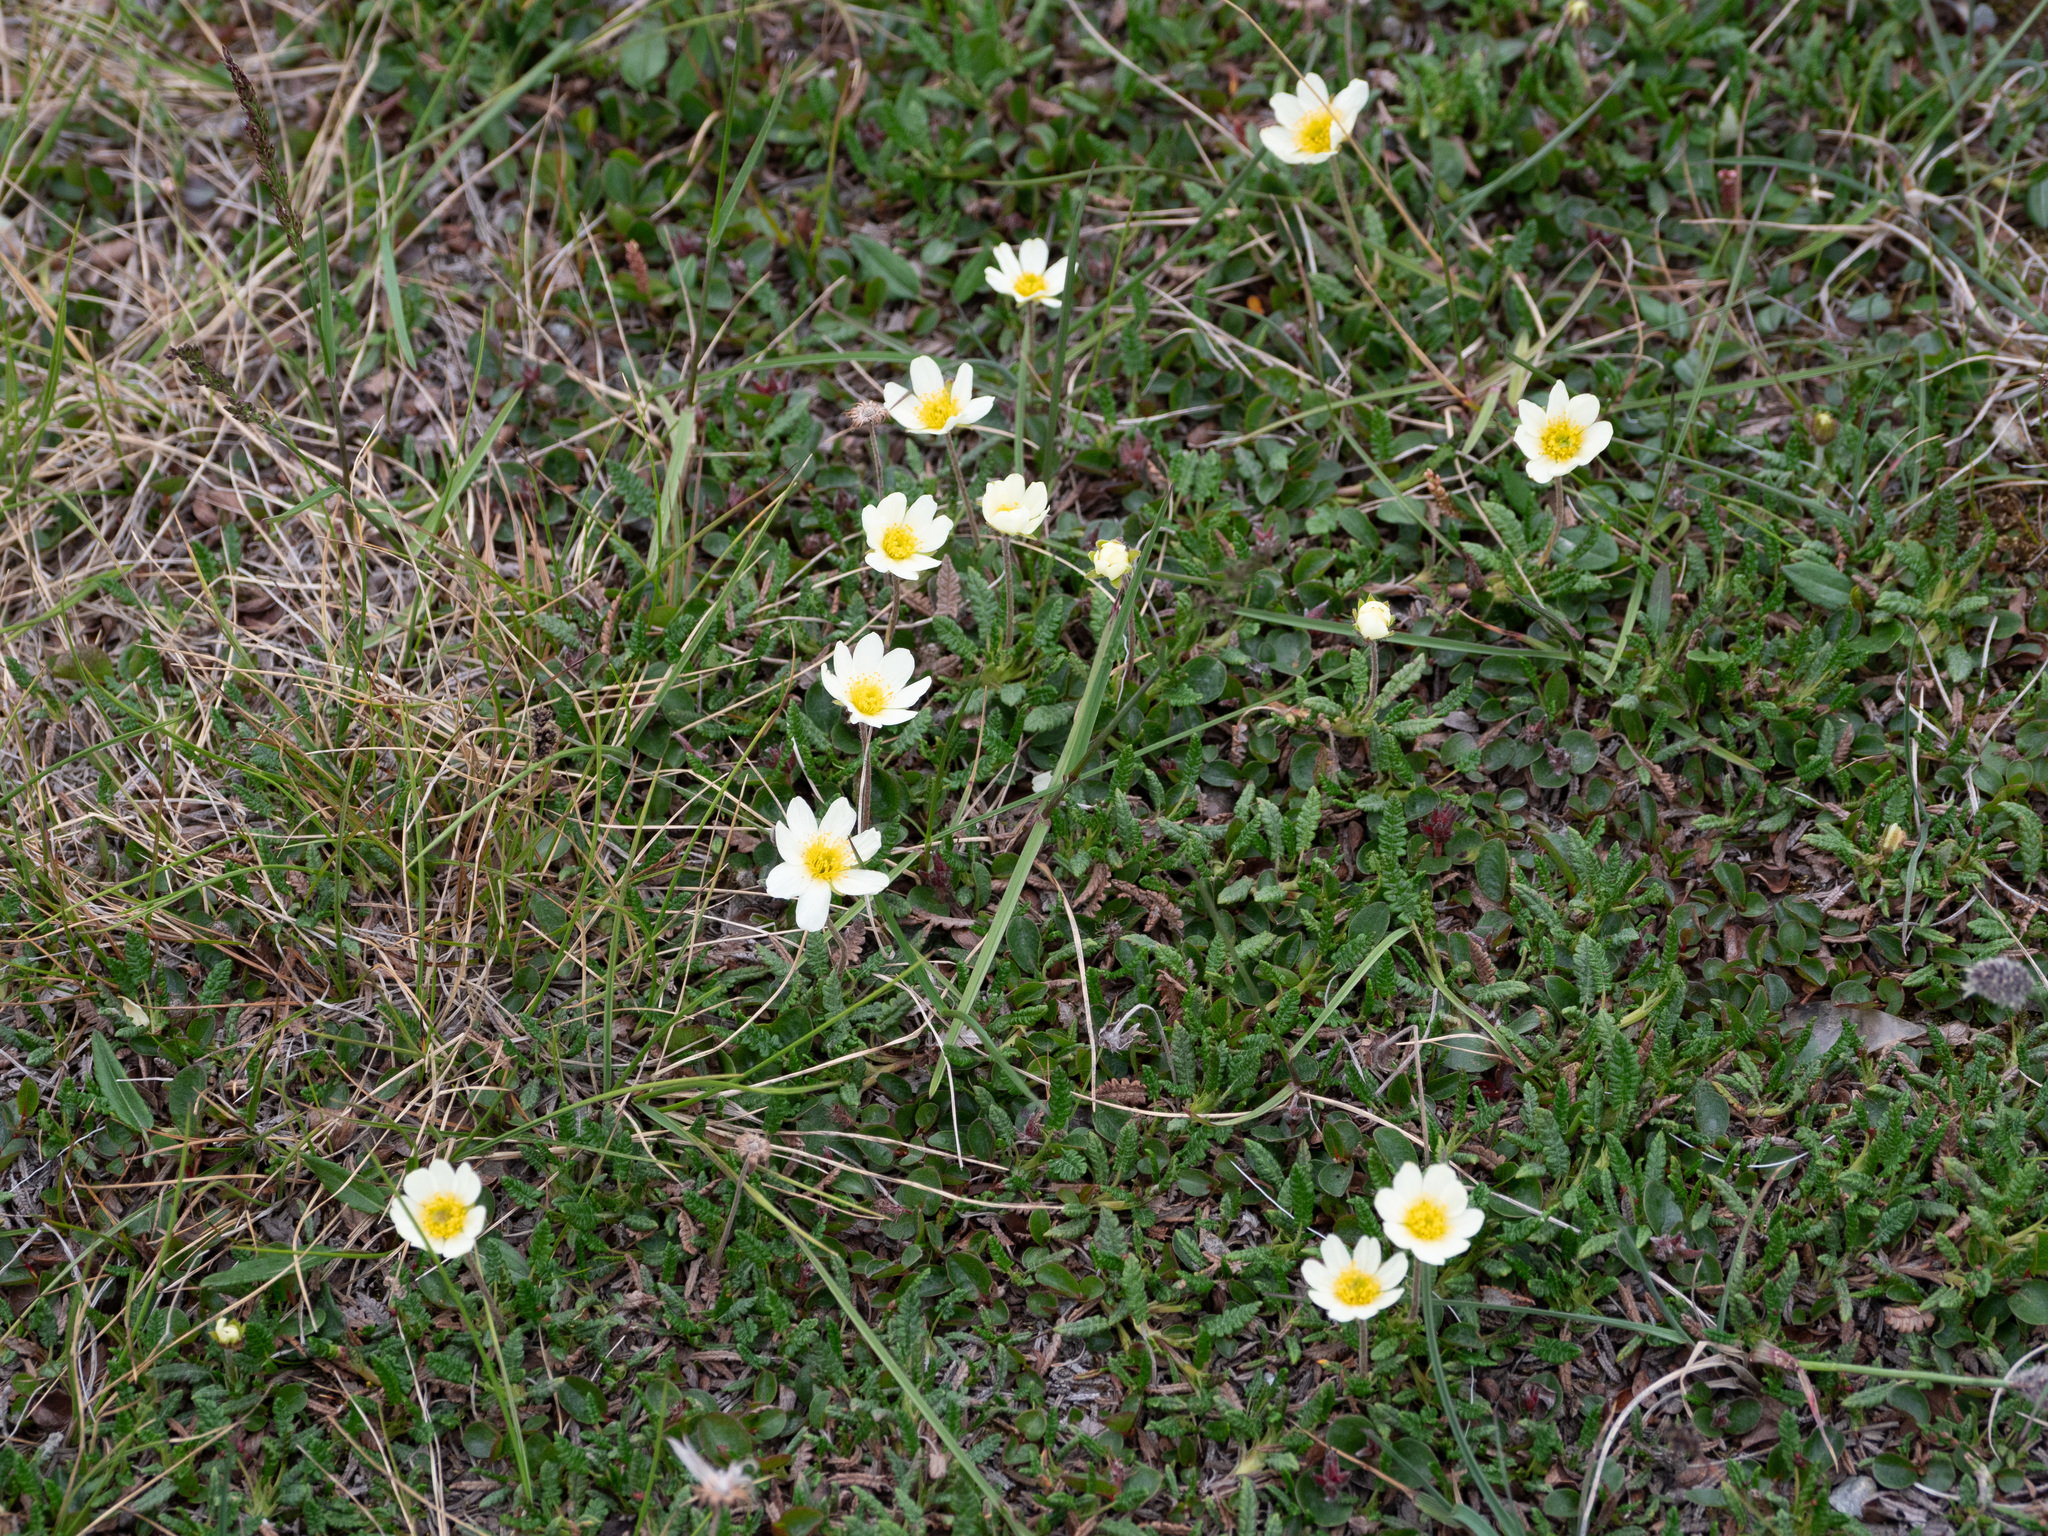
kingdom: Plantae
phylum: Tracheophyta
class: Magnoliopsida
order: Rosales
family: Rosaceae
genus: Dryas
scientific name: Dryas octopetala
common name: Eight-petal mountain-avens
